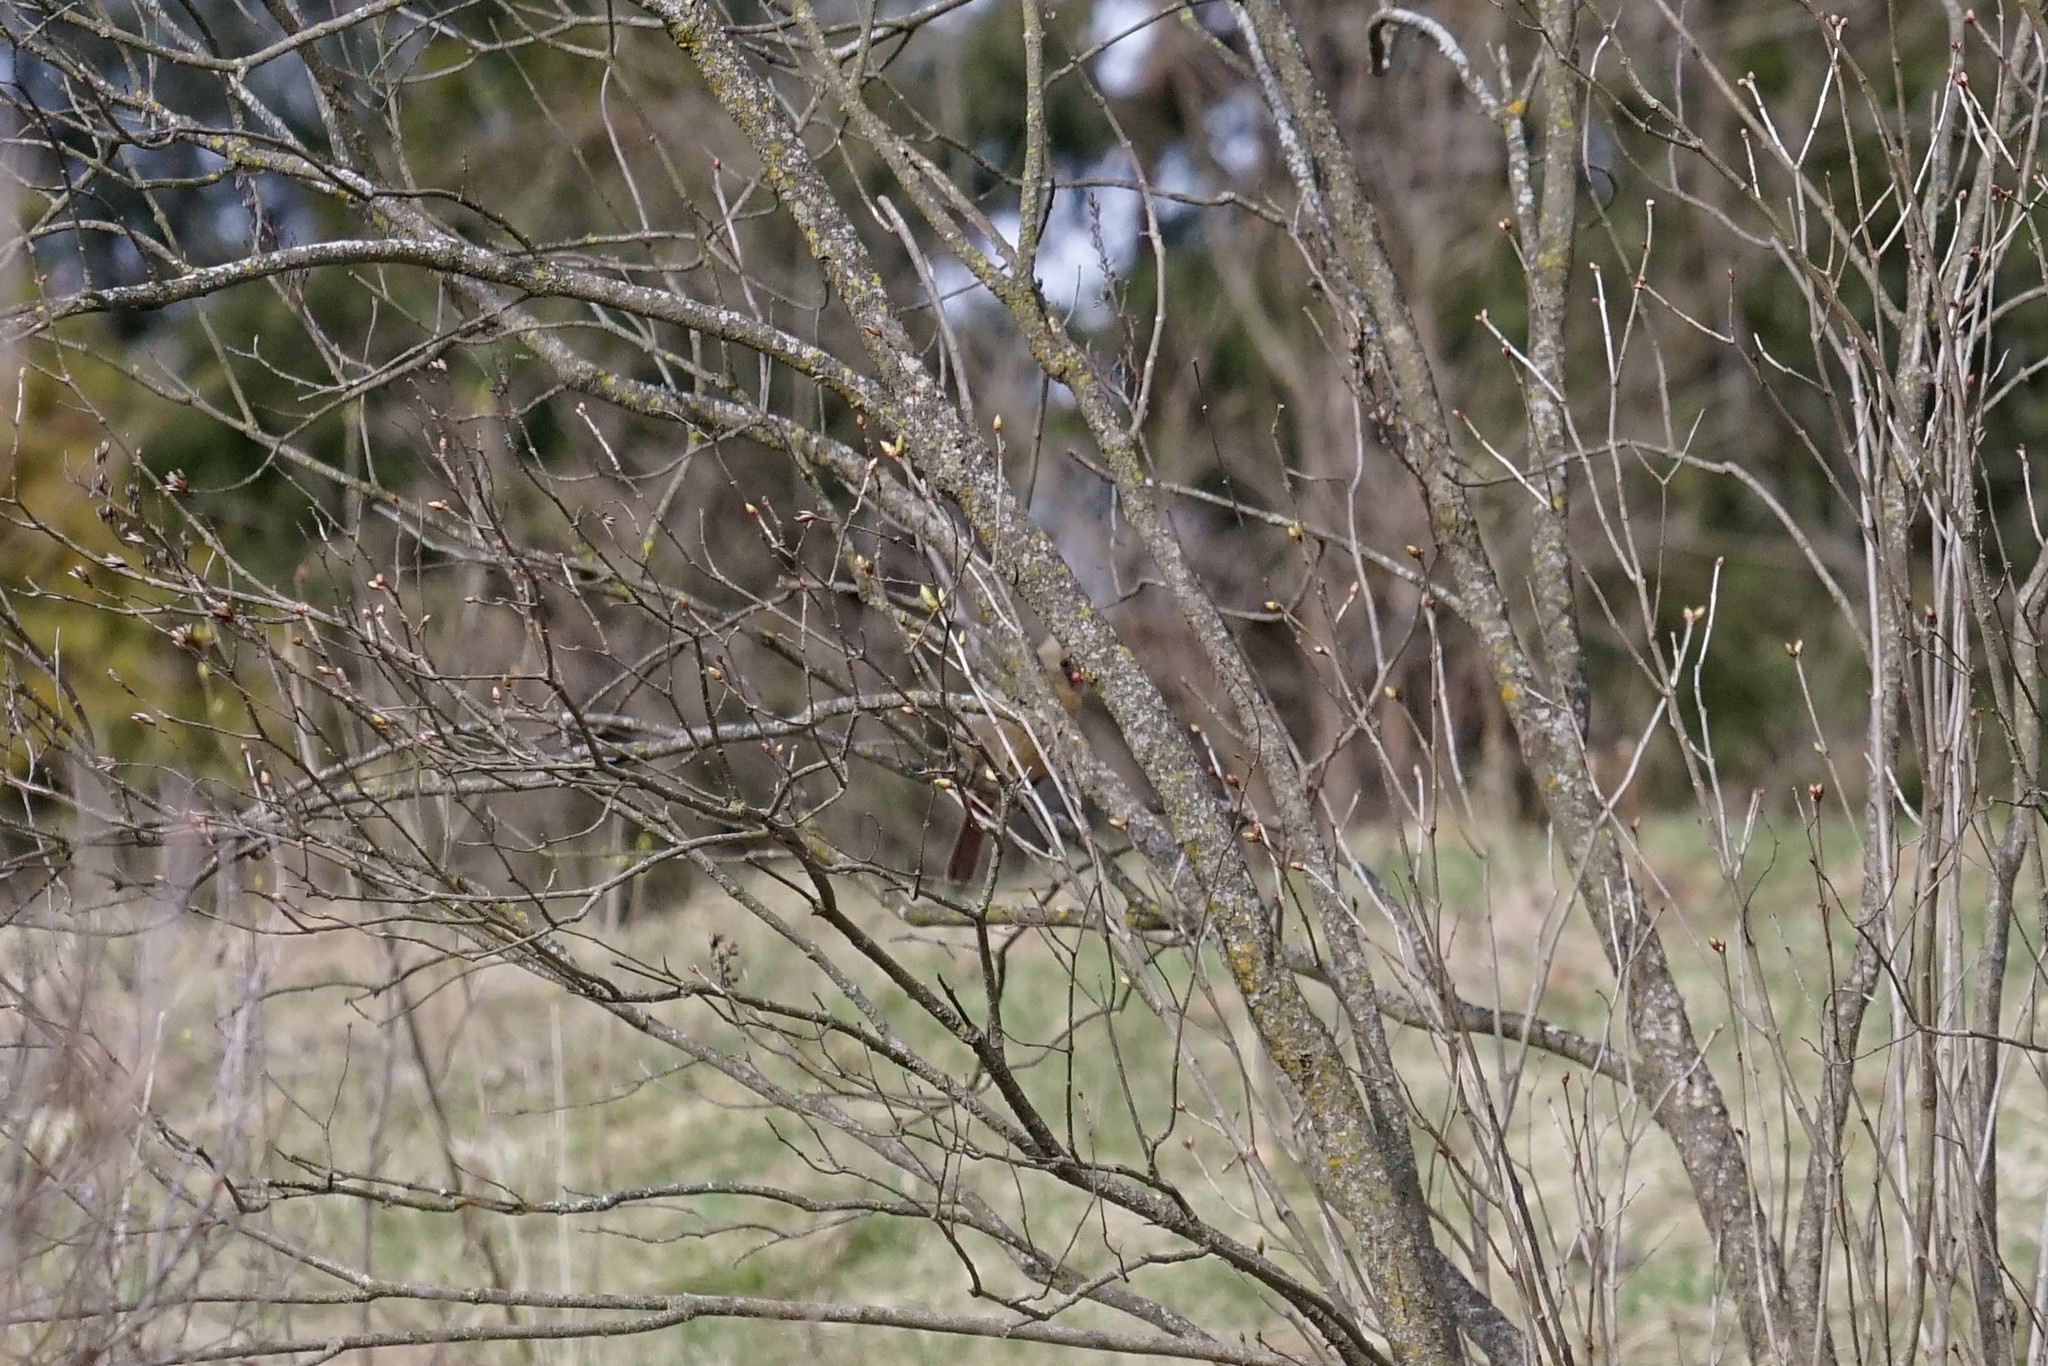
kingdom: Animalia
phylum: Chordata
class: Aves
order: Passeriformes
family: Cardinalidae
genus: Cardinalis
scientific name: Cardinalis cardinalis
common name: Northern cardinal
